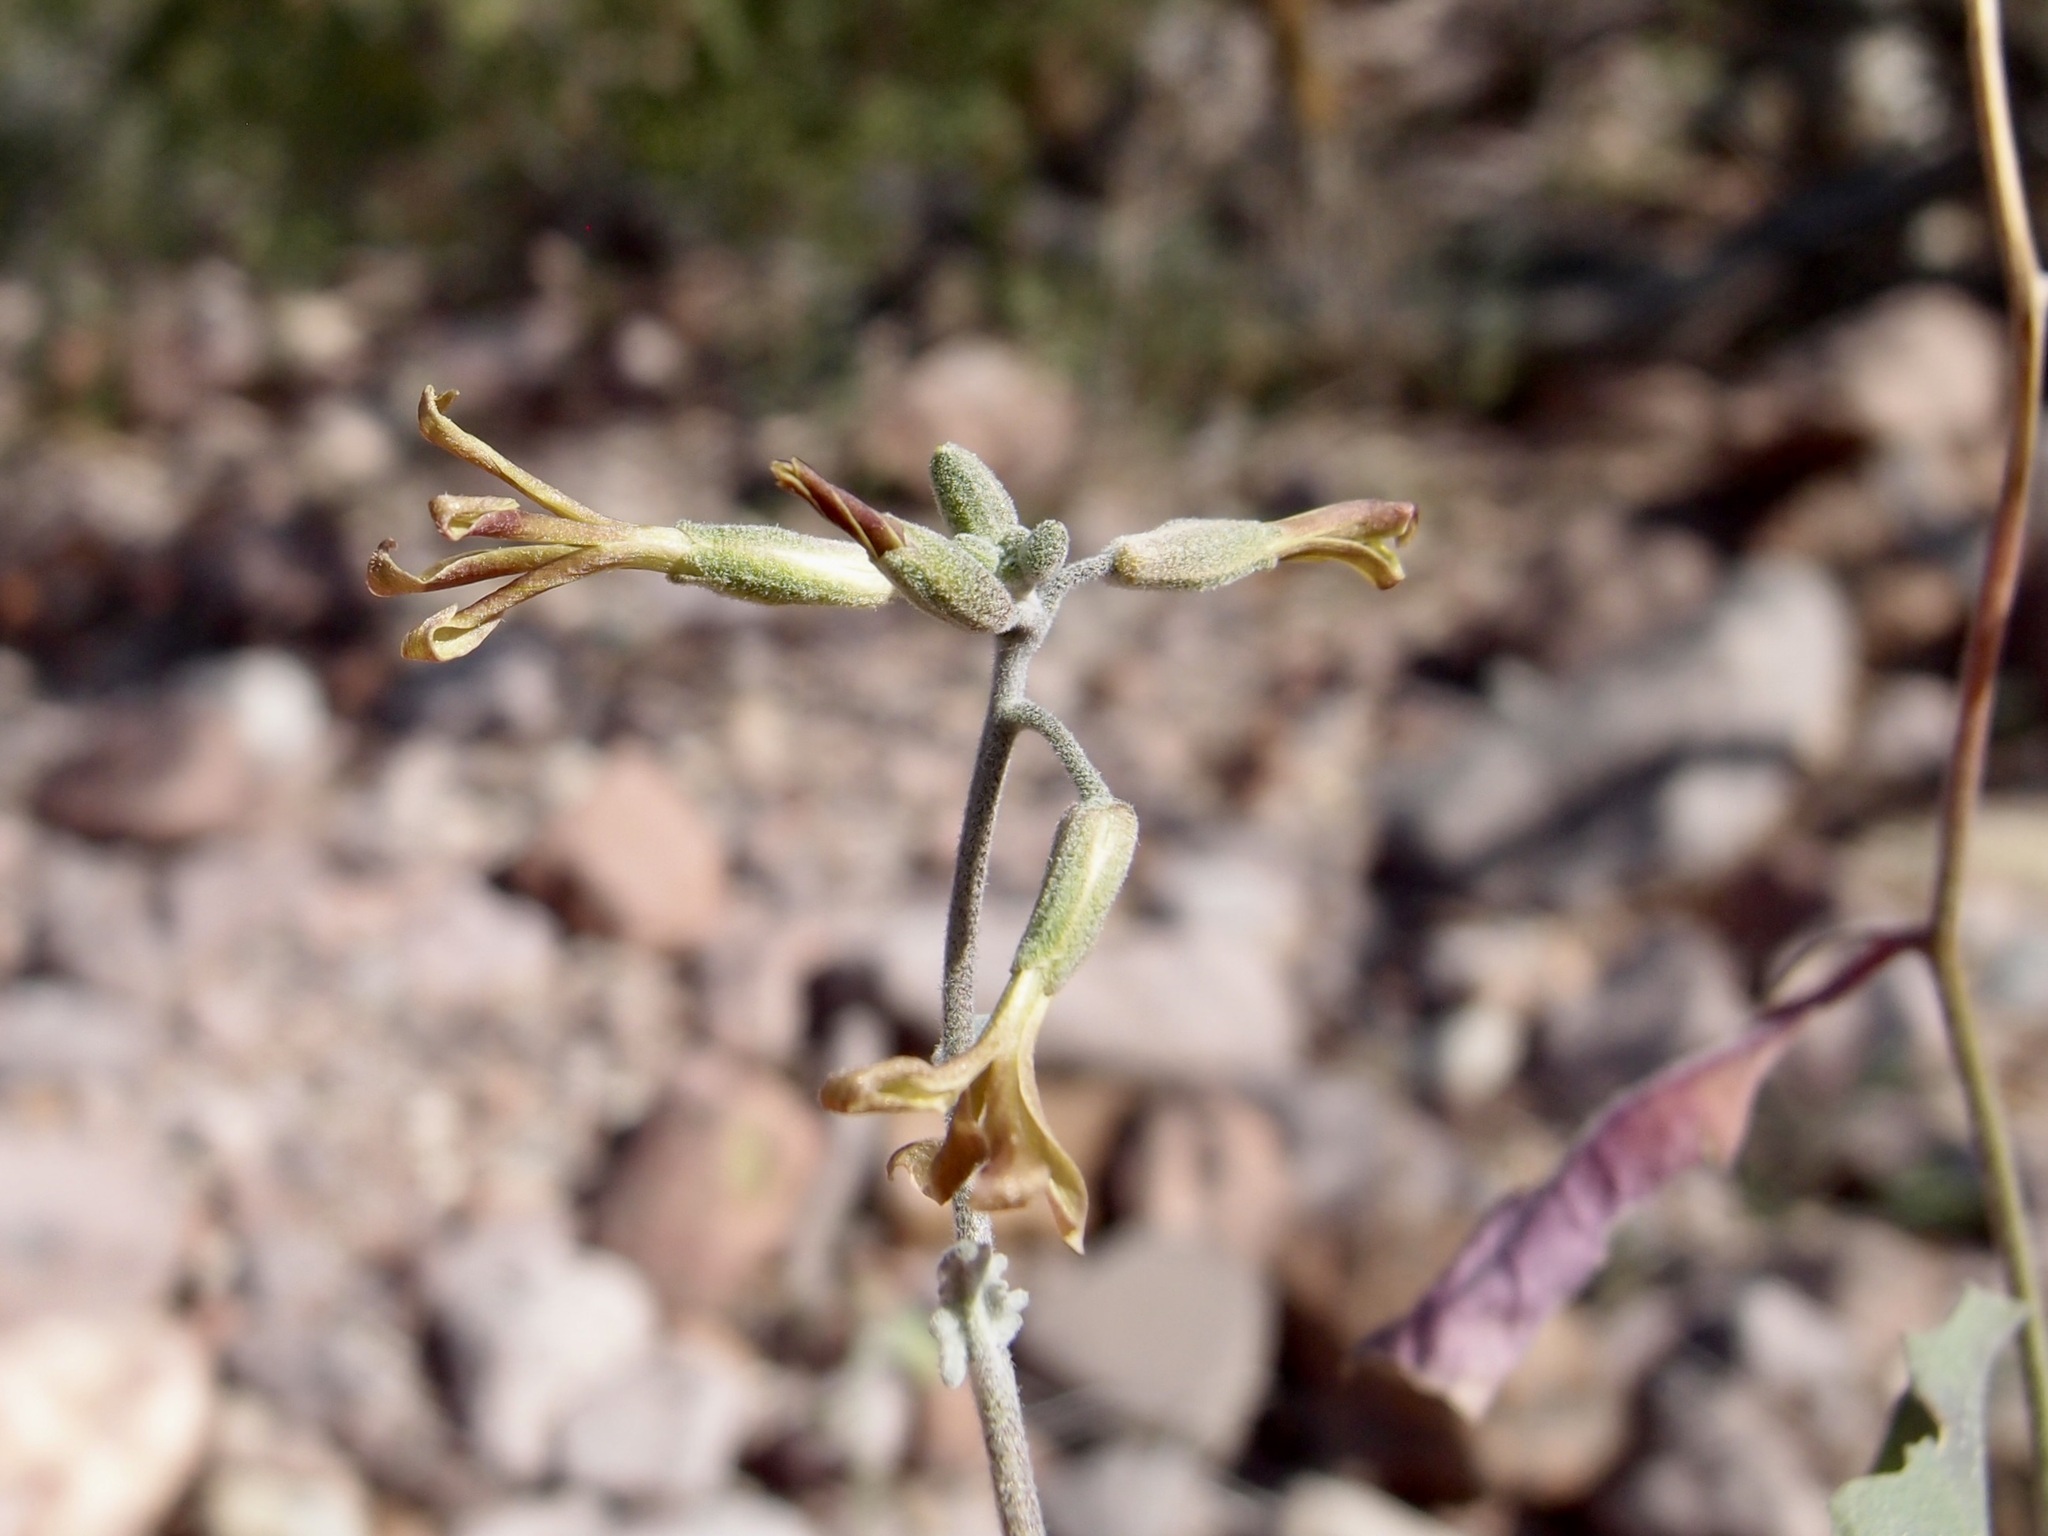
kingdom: Plantae
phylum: Tracheophyta
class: Magnoliopsida
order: Brassicales
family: Brassicaceae
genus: Lyrocarpa
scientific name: Lyrocarpa coulteri
